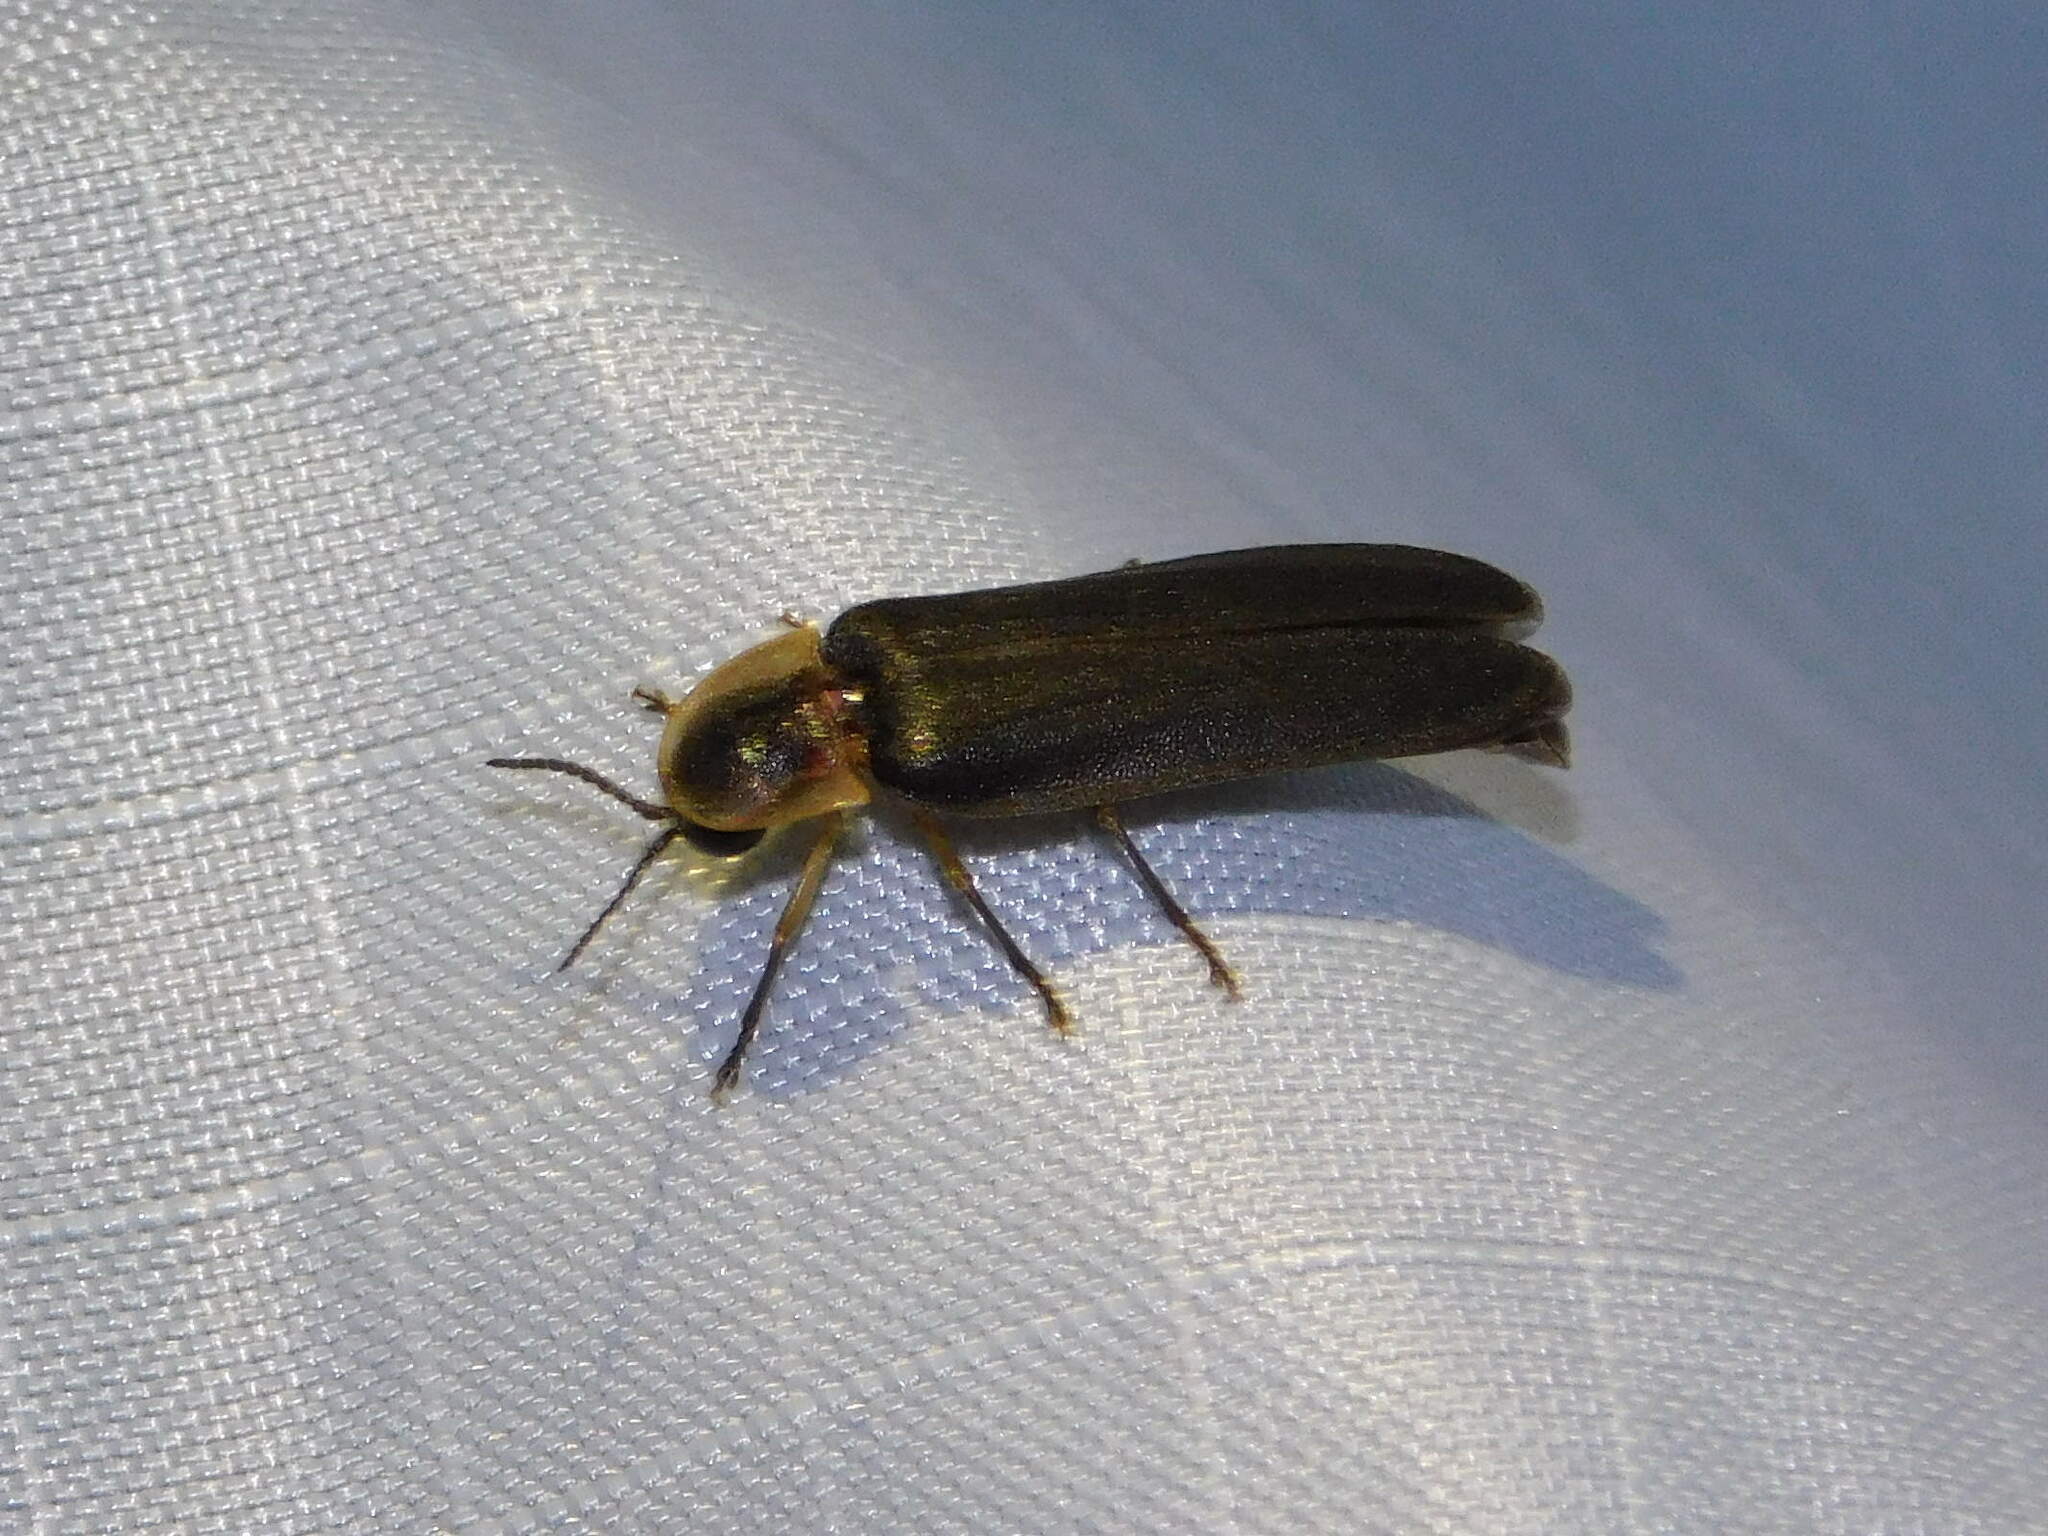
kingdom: Animalia
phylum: Arthropoda
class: Insecta
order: Coleoptera
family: Lampyridae
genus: Lampyris
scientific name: Lampyris noctiluca
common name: Glow-worm
